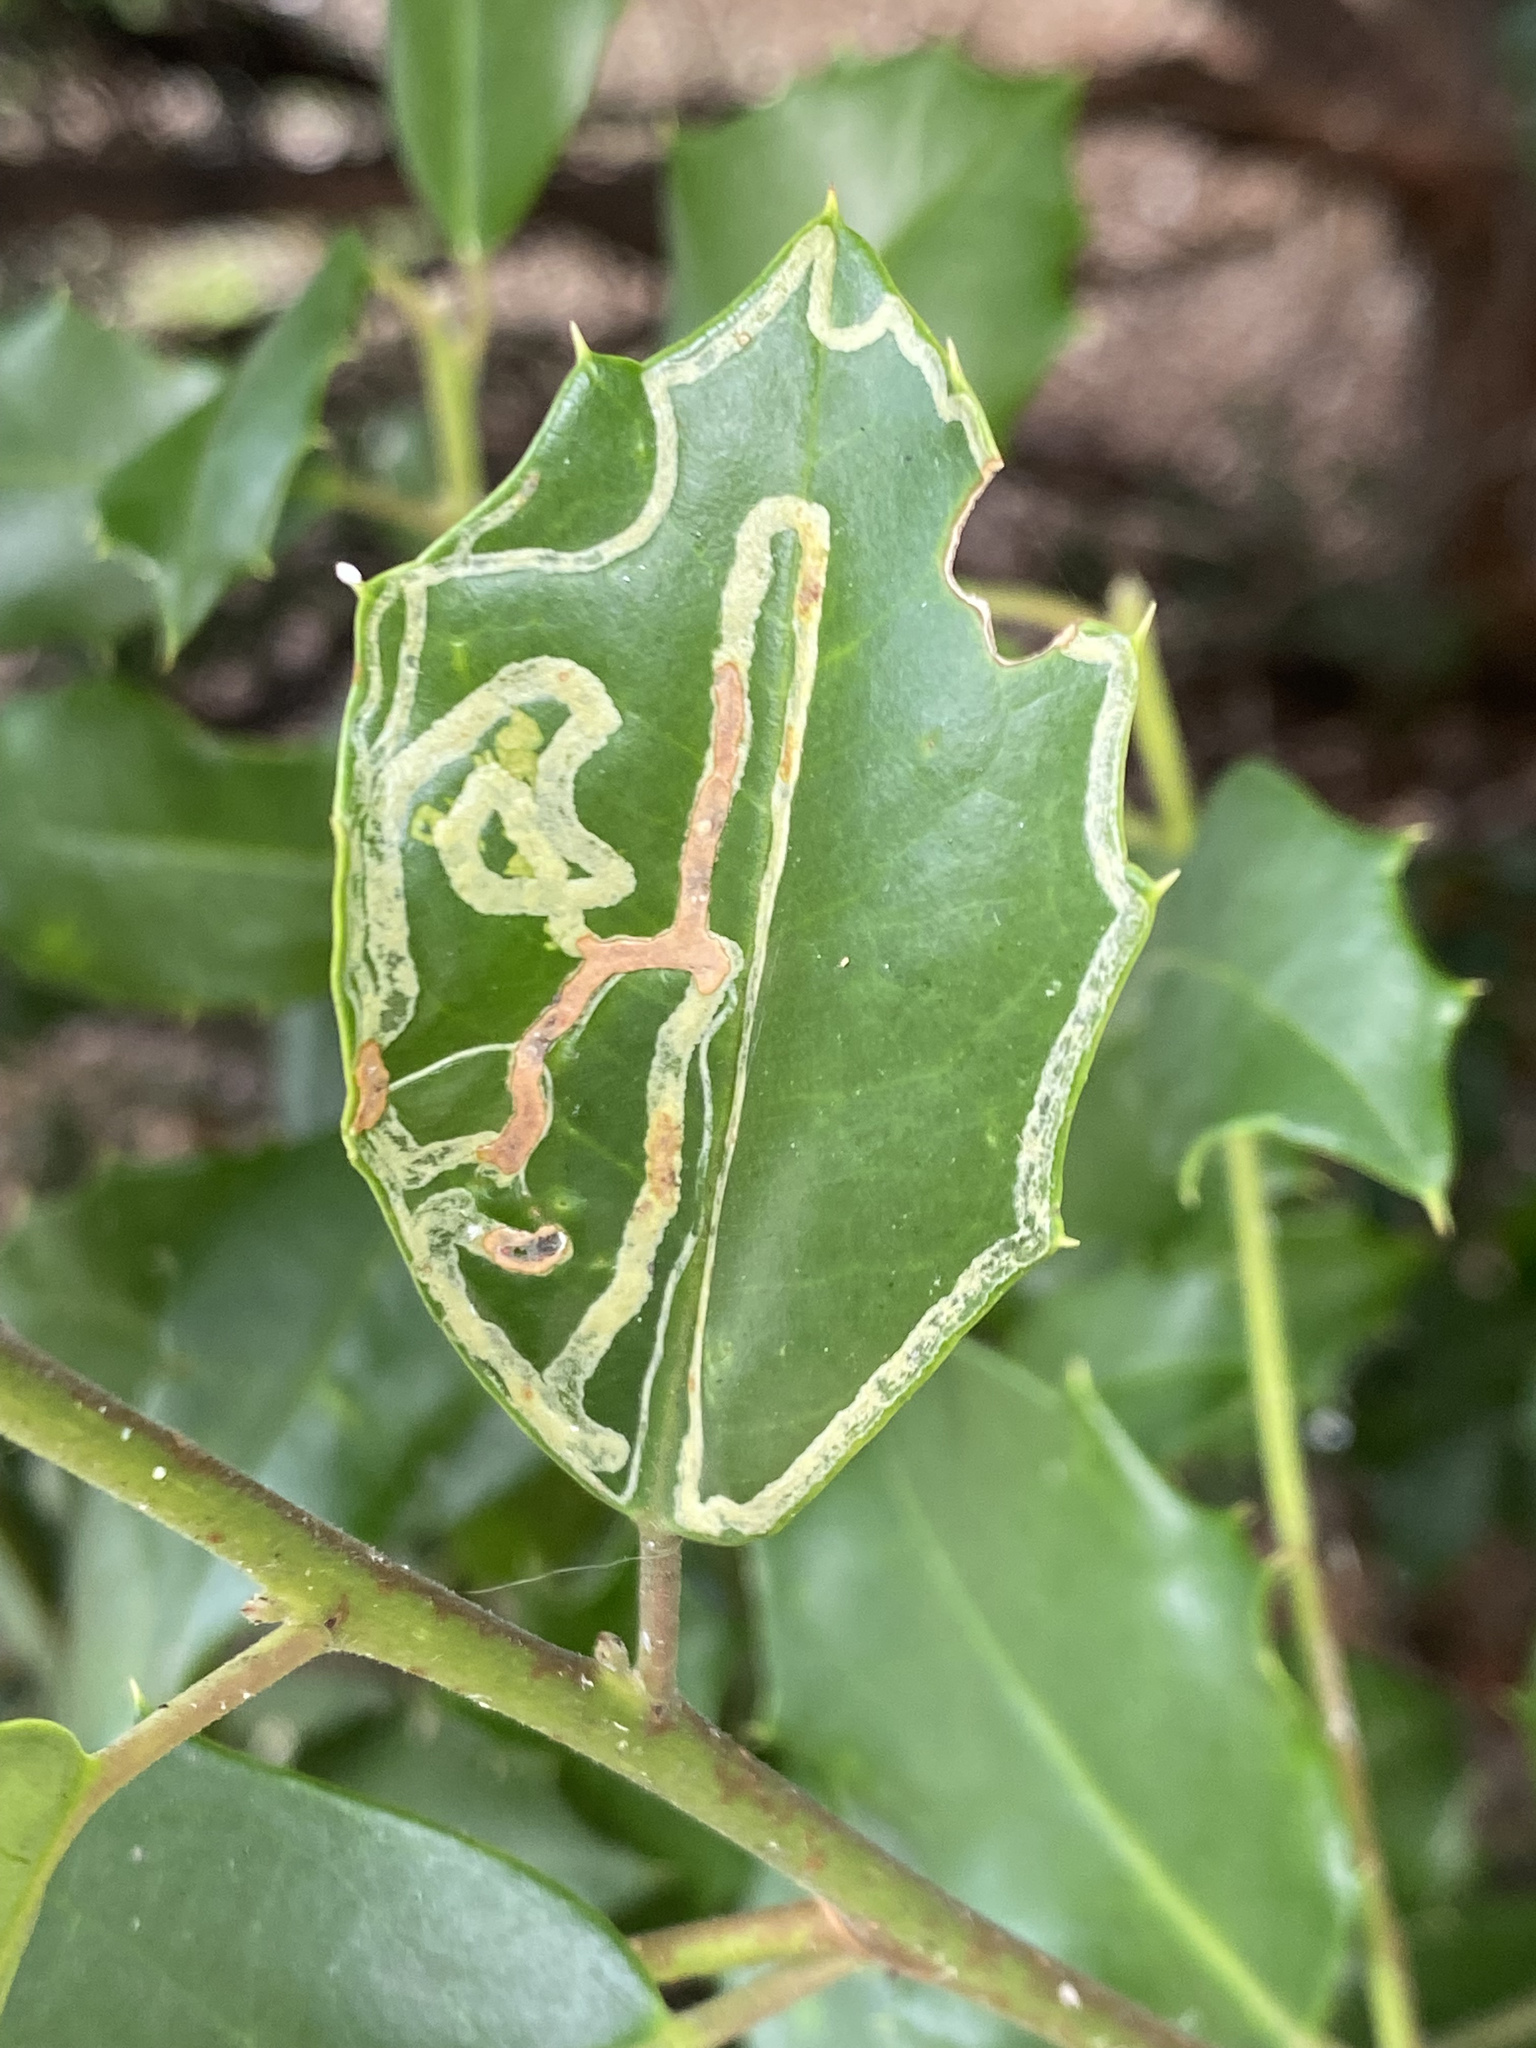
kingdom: Animalia
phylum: Arthropoda
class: Insecta
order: Diptera
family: Agromyzidae
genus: Phytomyza
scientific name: Phytomyza opacae
